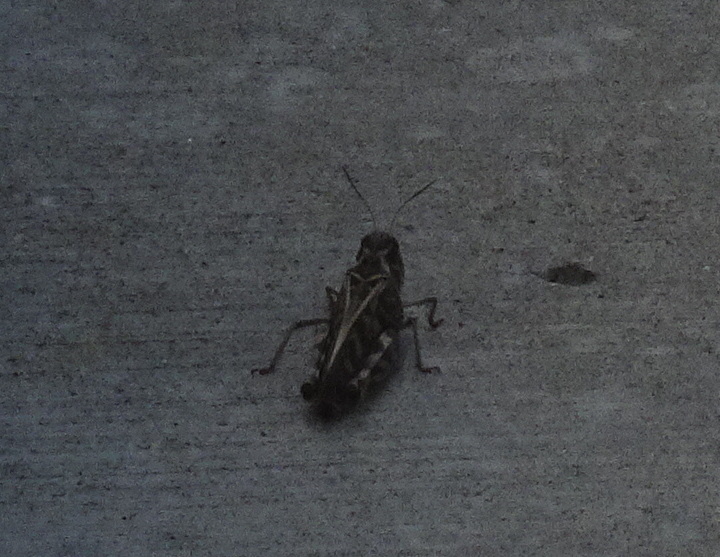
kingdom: Animalia
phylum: Arthropoda
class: Insecta
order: Orthoptera
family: Acrididae
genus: Hippiscus
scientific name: Hippiscus ocelote
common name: Wrinkled grasshopper
